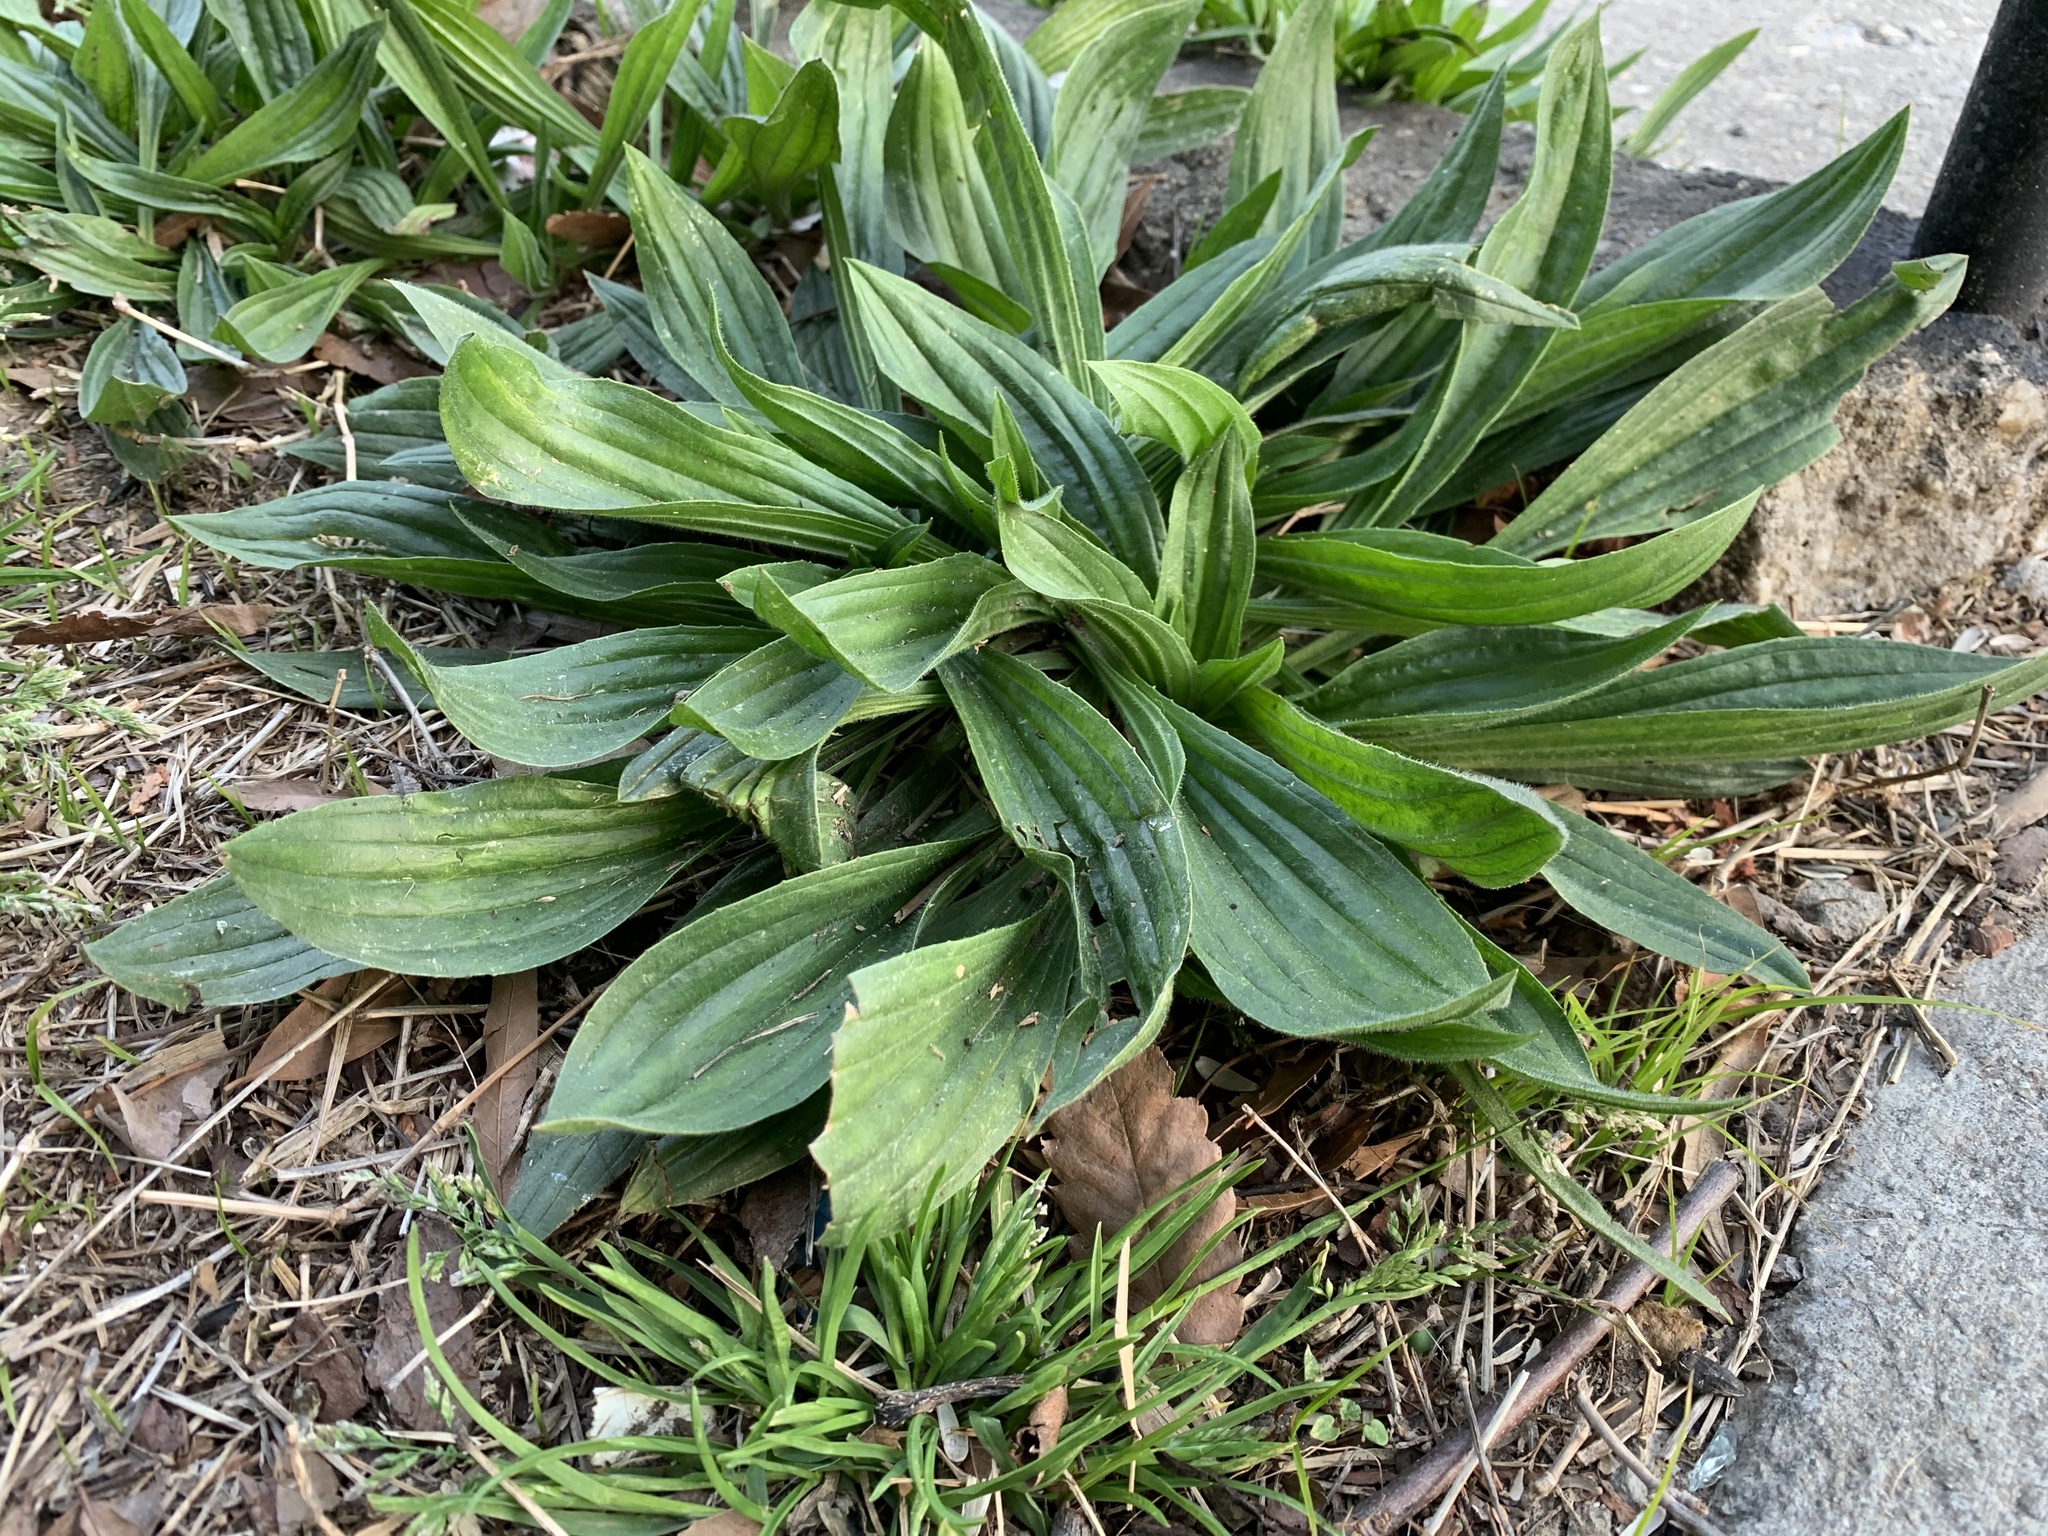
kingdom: Plantae
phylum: Tracheophyta
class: Magnoliopsida
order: Lamiales
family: Plantaginaceae
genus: Plantago
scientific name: Plantago lanceolata
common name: Ribwort plantain
